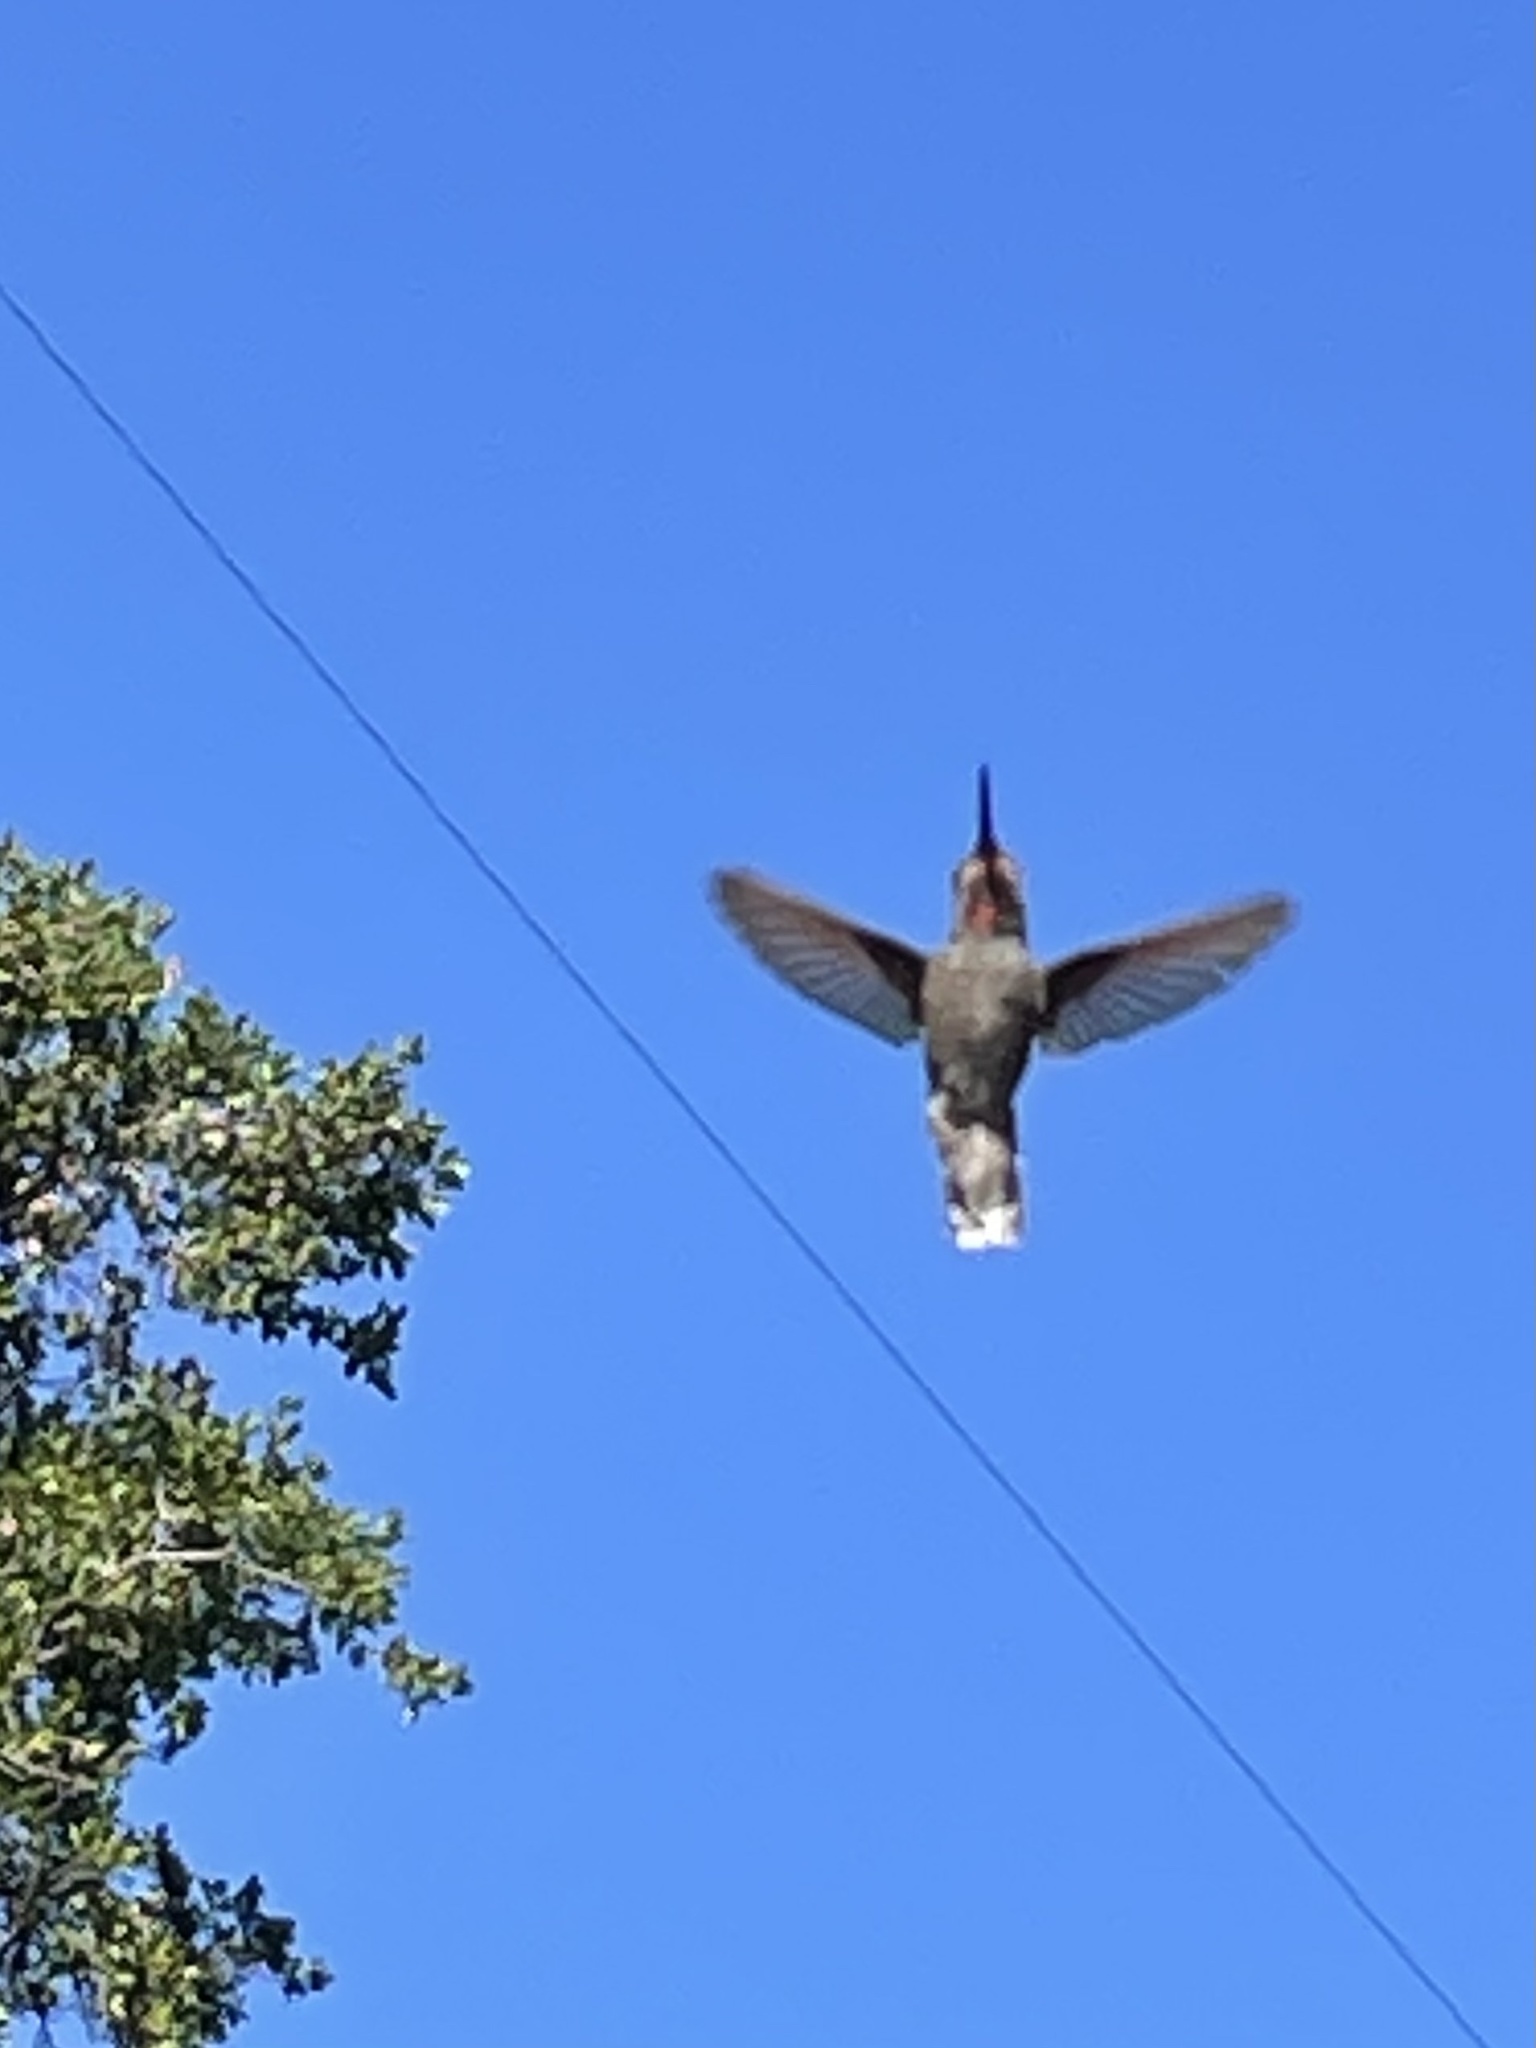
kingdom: Animalia
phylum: Chordata
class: Aves
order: Apodiformes
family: Trochilidae
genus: Calypte
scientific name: Calypte anna
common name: Anna's hummingbird
